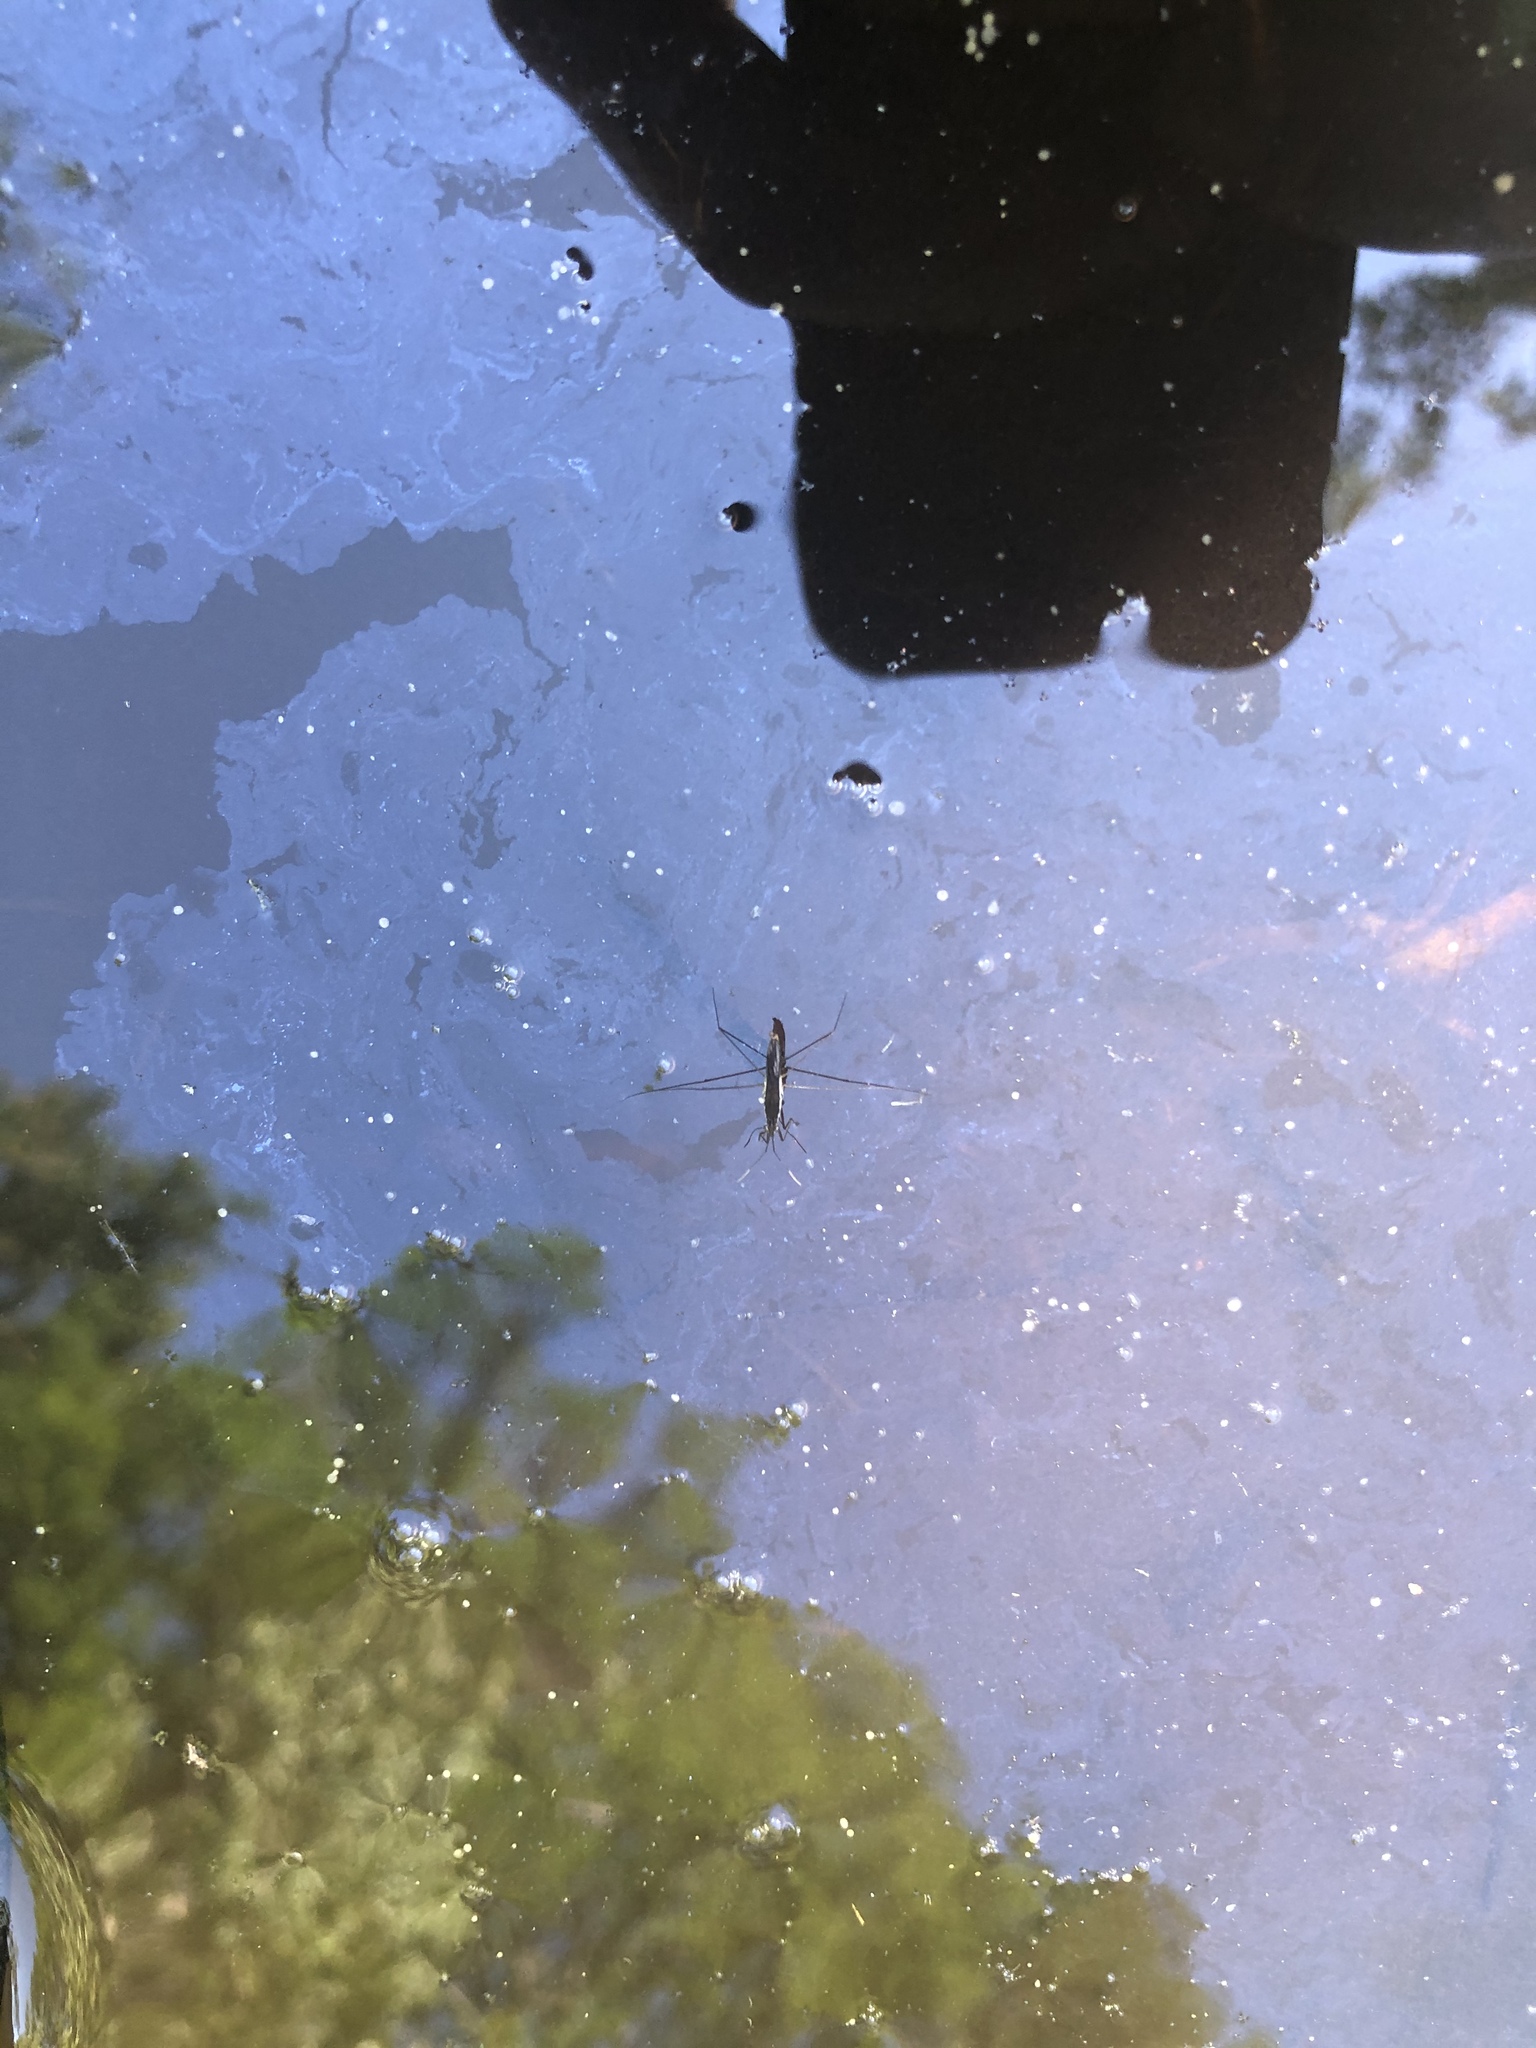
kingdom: Animalia
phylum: Arthropoda
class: Insecta
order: Hemiptera
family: Gerridae
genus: Limnoporus
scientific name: Limnoporus canaliculatus
